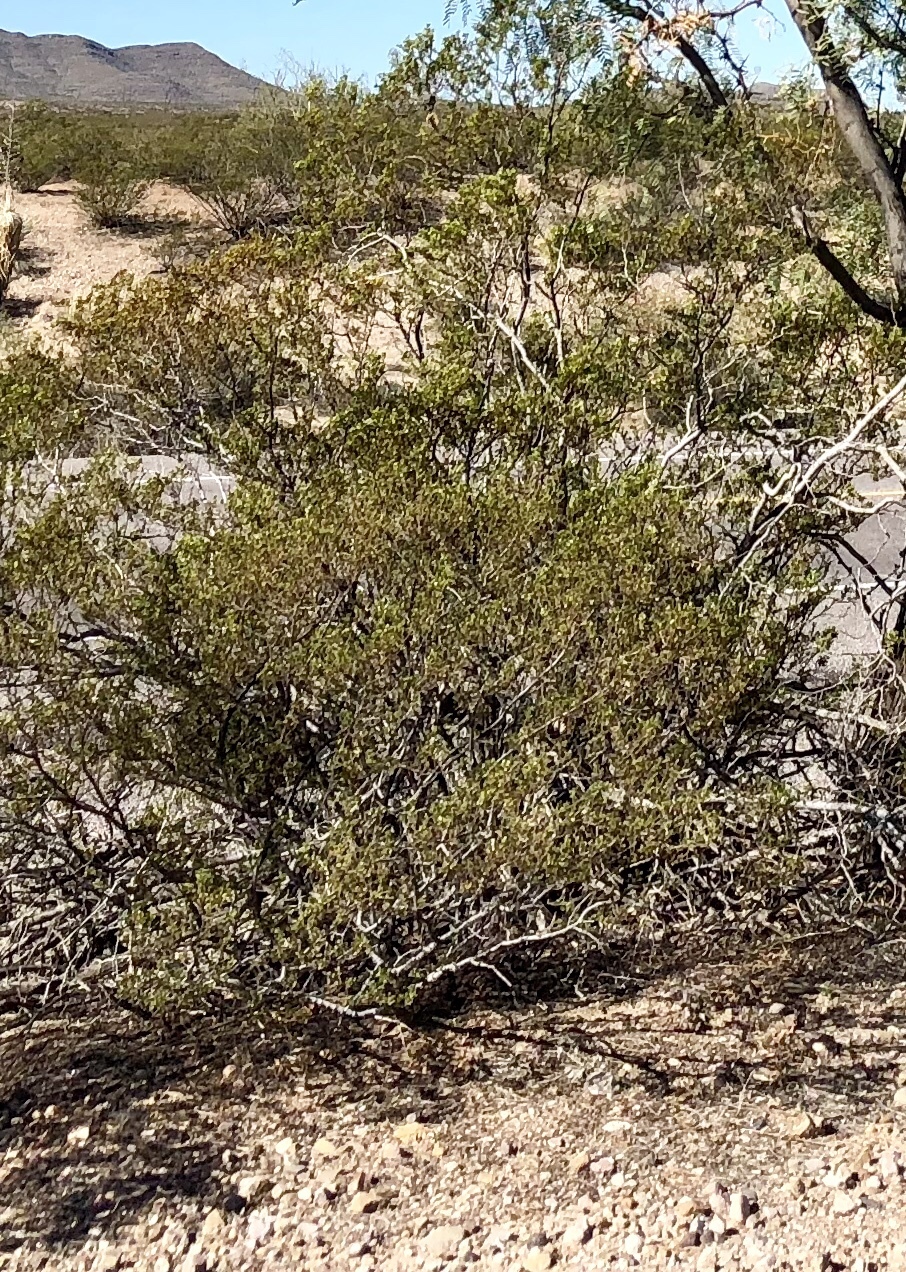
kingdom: Plantae
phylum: Tracheophyta
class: Magnoliopsida
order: Zygophyllales
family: Zygophyllaceae
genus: Larrea
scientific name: Larrea tridentata
